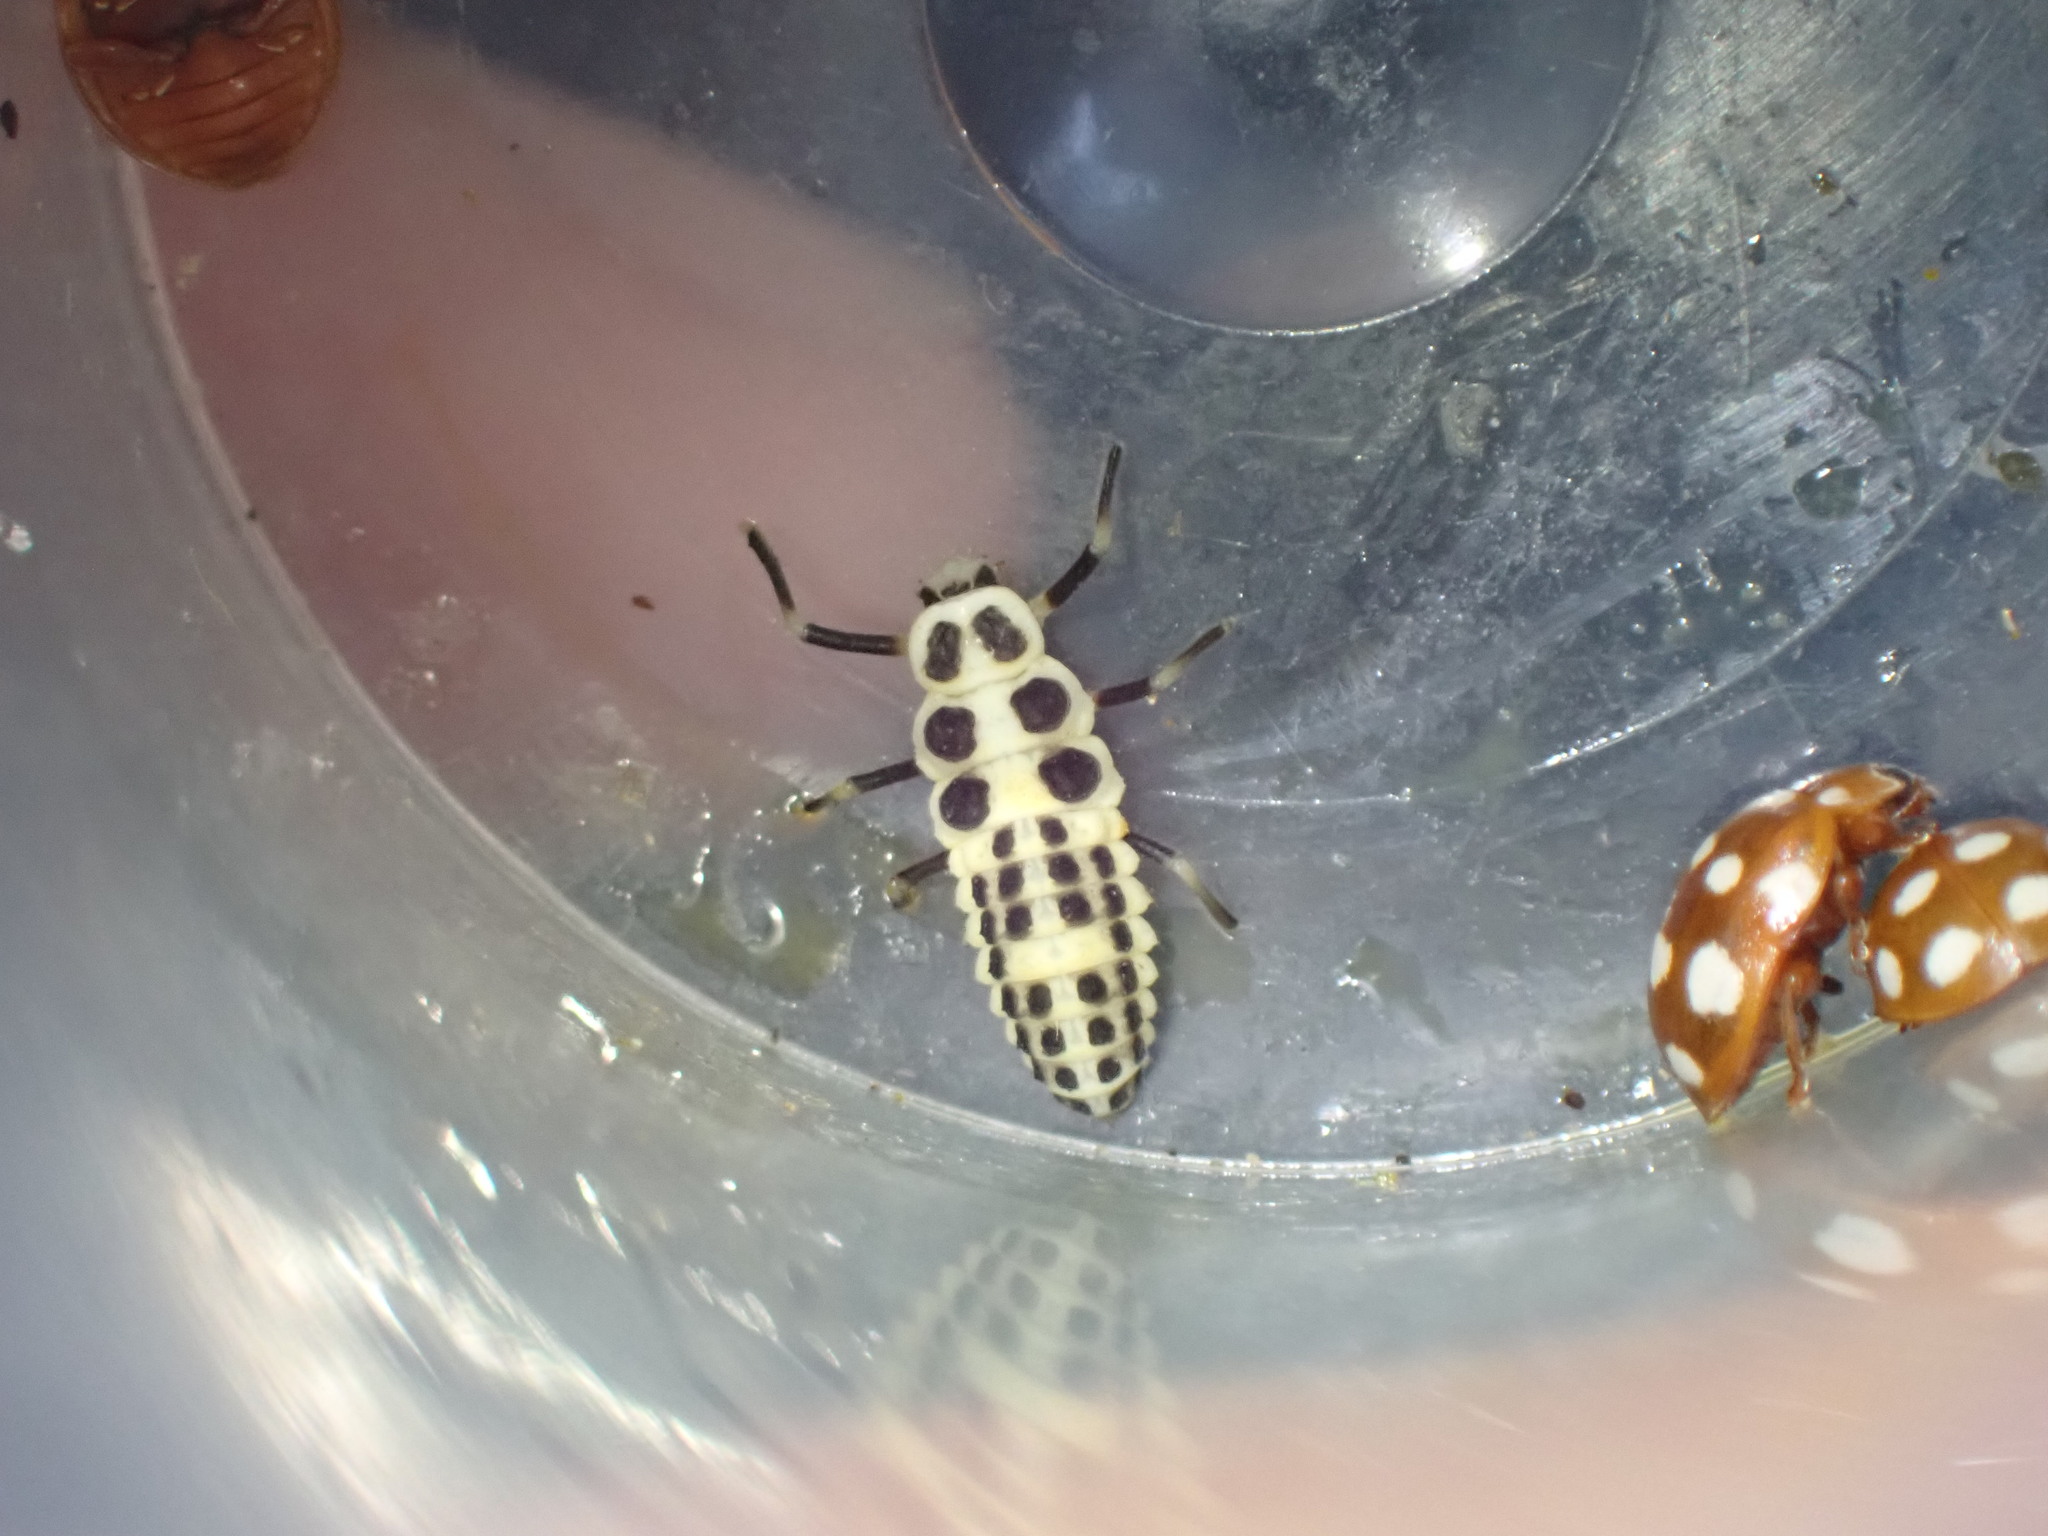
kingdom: Animalia
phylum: Arthropoda
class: Insecta
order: Coleoptera
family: Coccinellidae
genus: Calvia
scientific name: Calvia decemguttata
